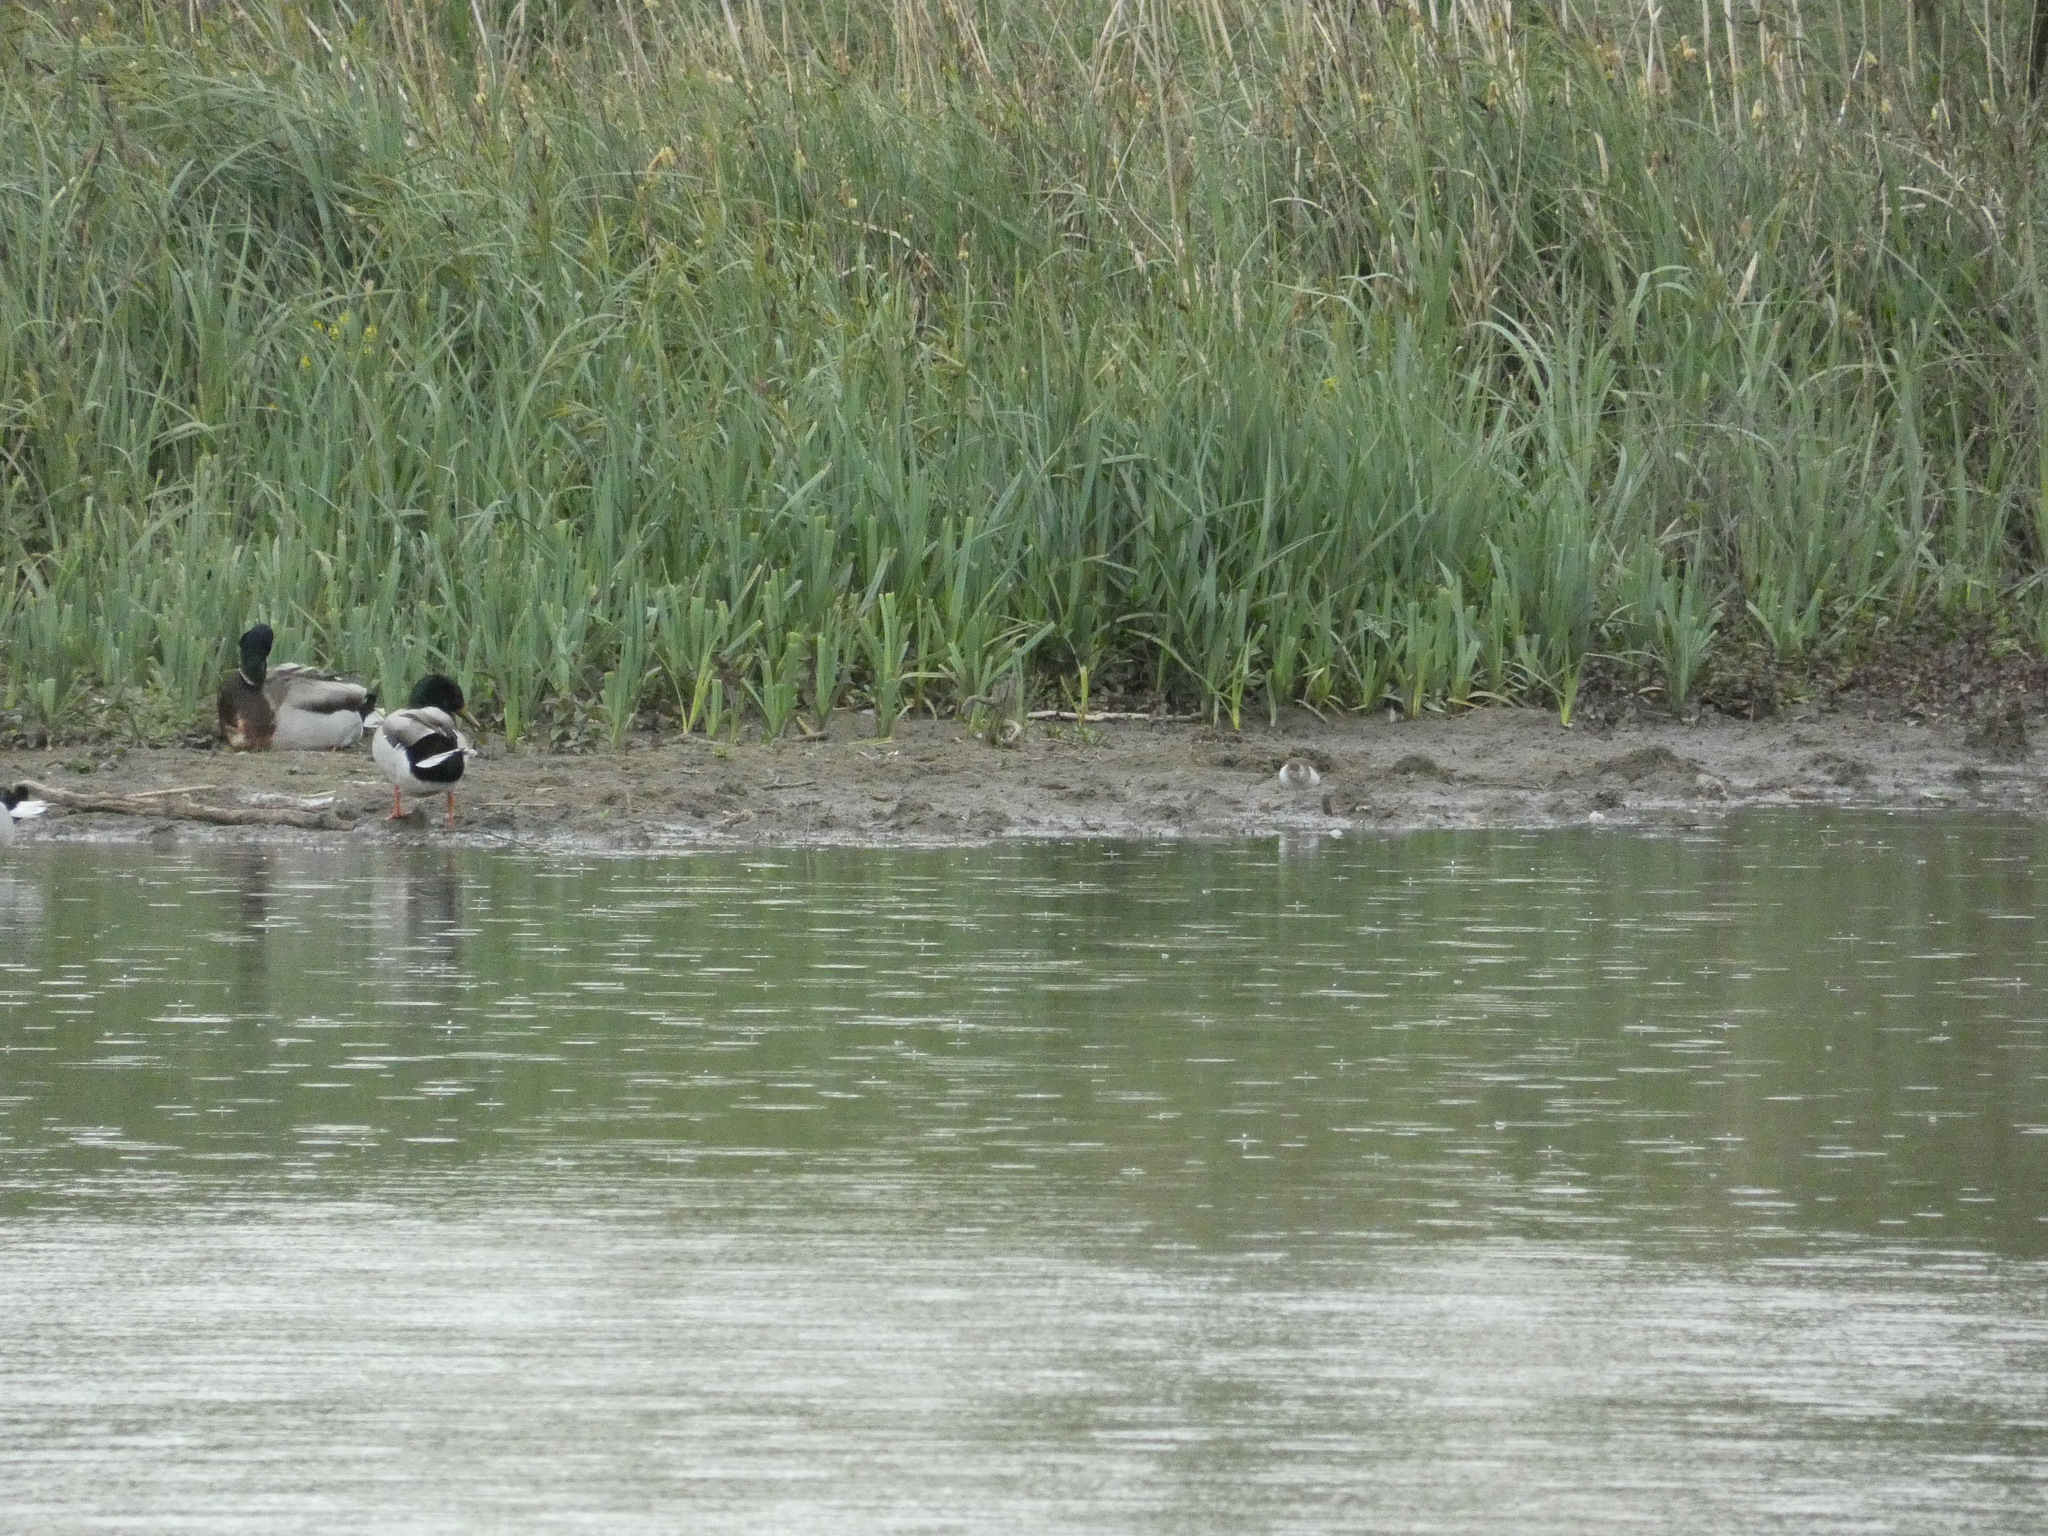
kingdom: Animalia
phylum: Chordata
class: Aves
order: Anseriformes
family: Anatidae
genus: Anas
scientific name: Anas platyrhynchos
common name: Mallard
